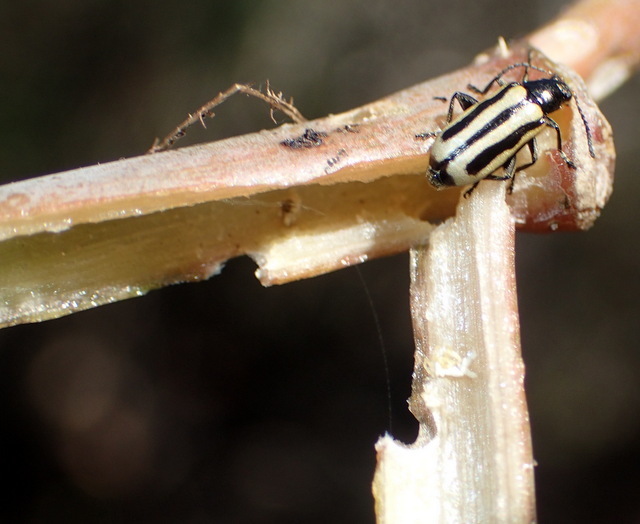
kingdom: Animalia
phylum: Arthropoda
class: Insecta
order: Coleoptera
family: Chrysomelidae
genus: Agasicles
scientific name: Agasicles hygrophila
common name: Alligatorweed flea beetle
